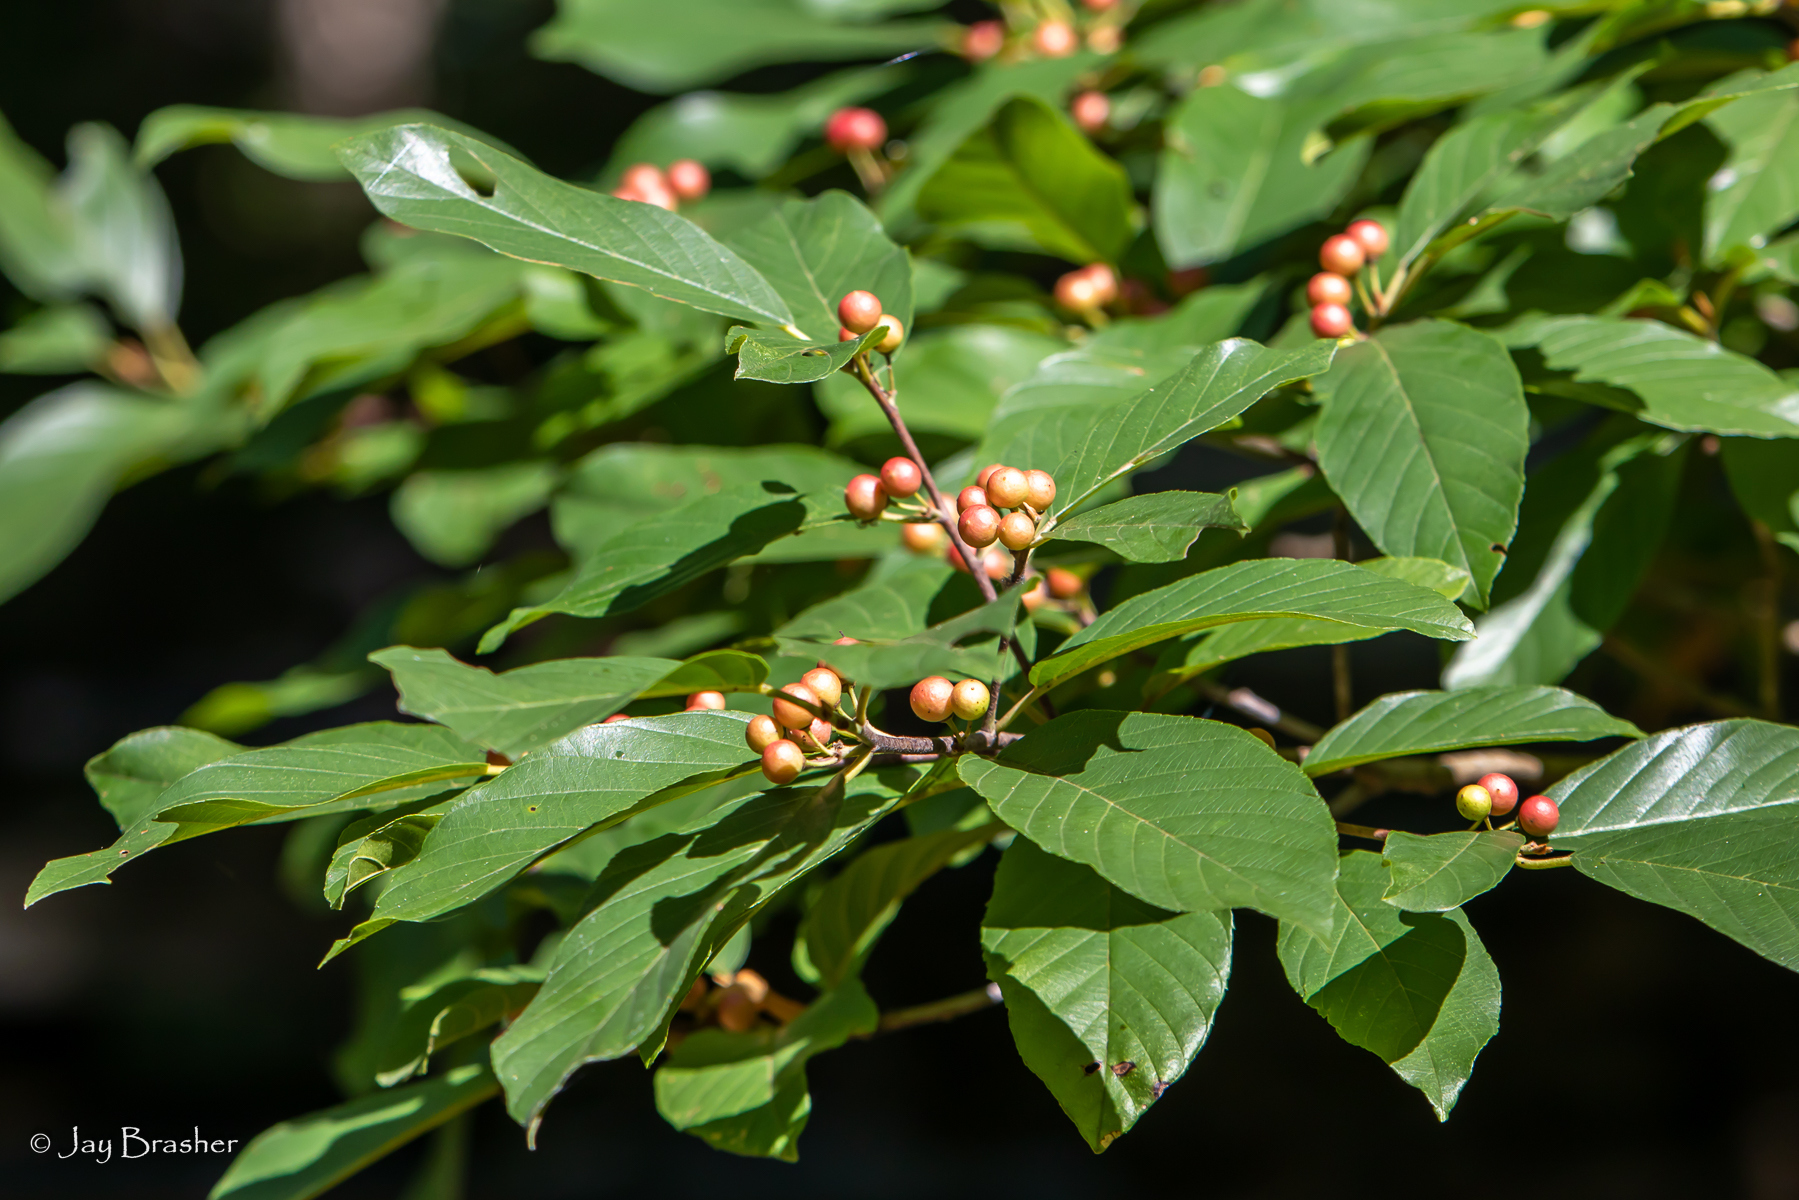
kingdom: Plantae
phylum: Tracheophyta
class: Magnoliopsida
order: Rosales
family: Rhamnaceae
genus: Frangula
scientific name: Frangula caroliniana
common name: Carolina buckthorn
